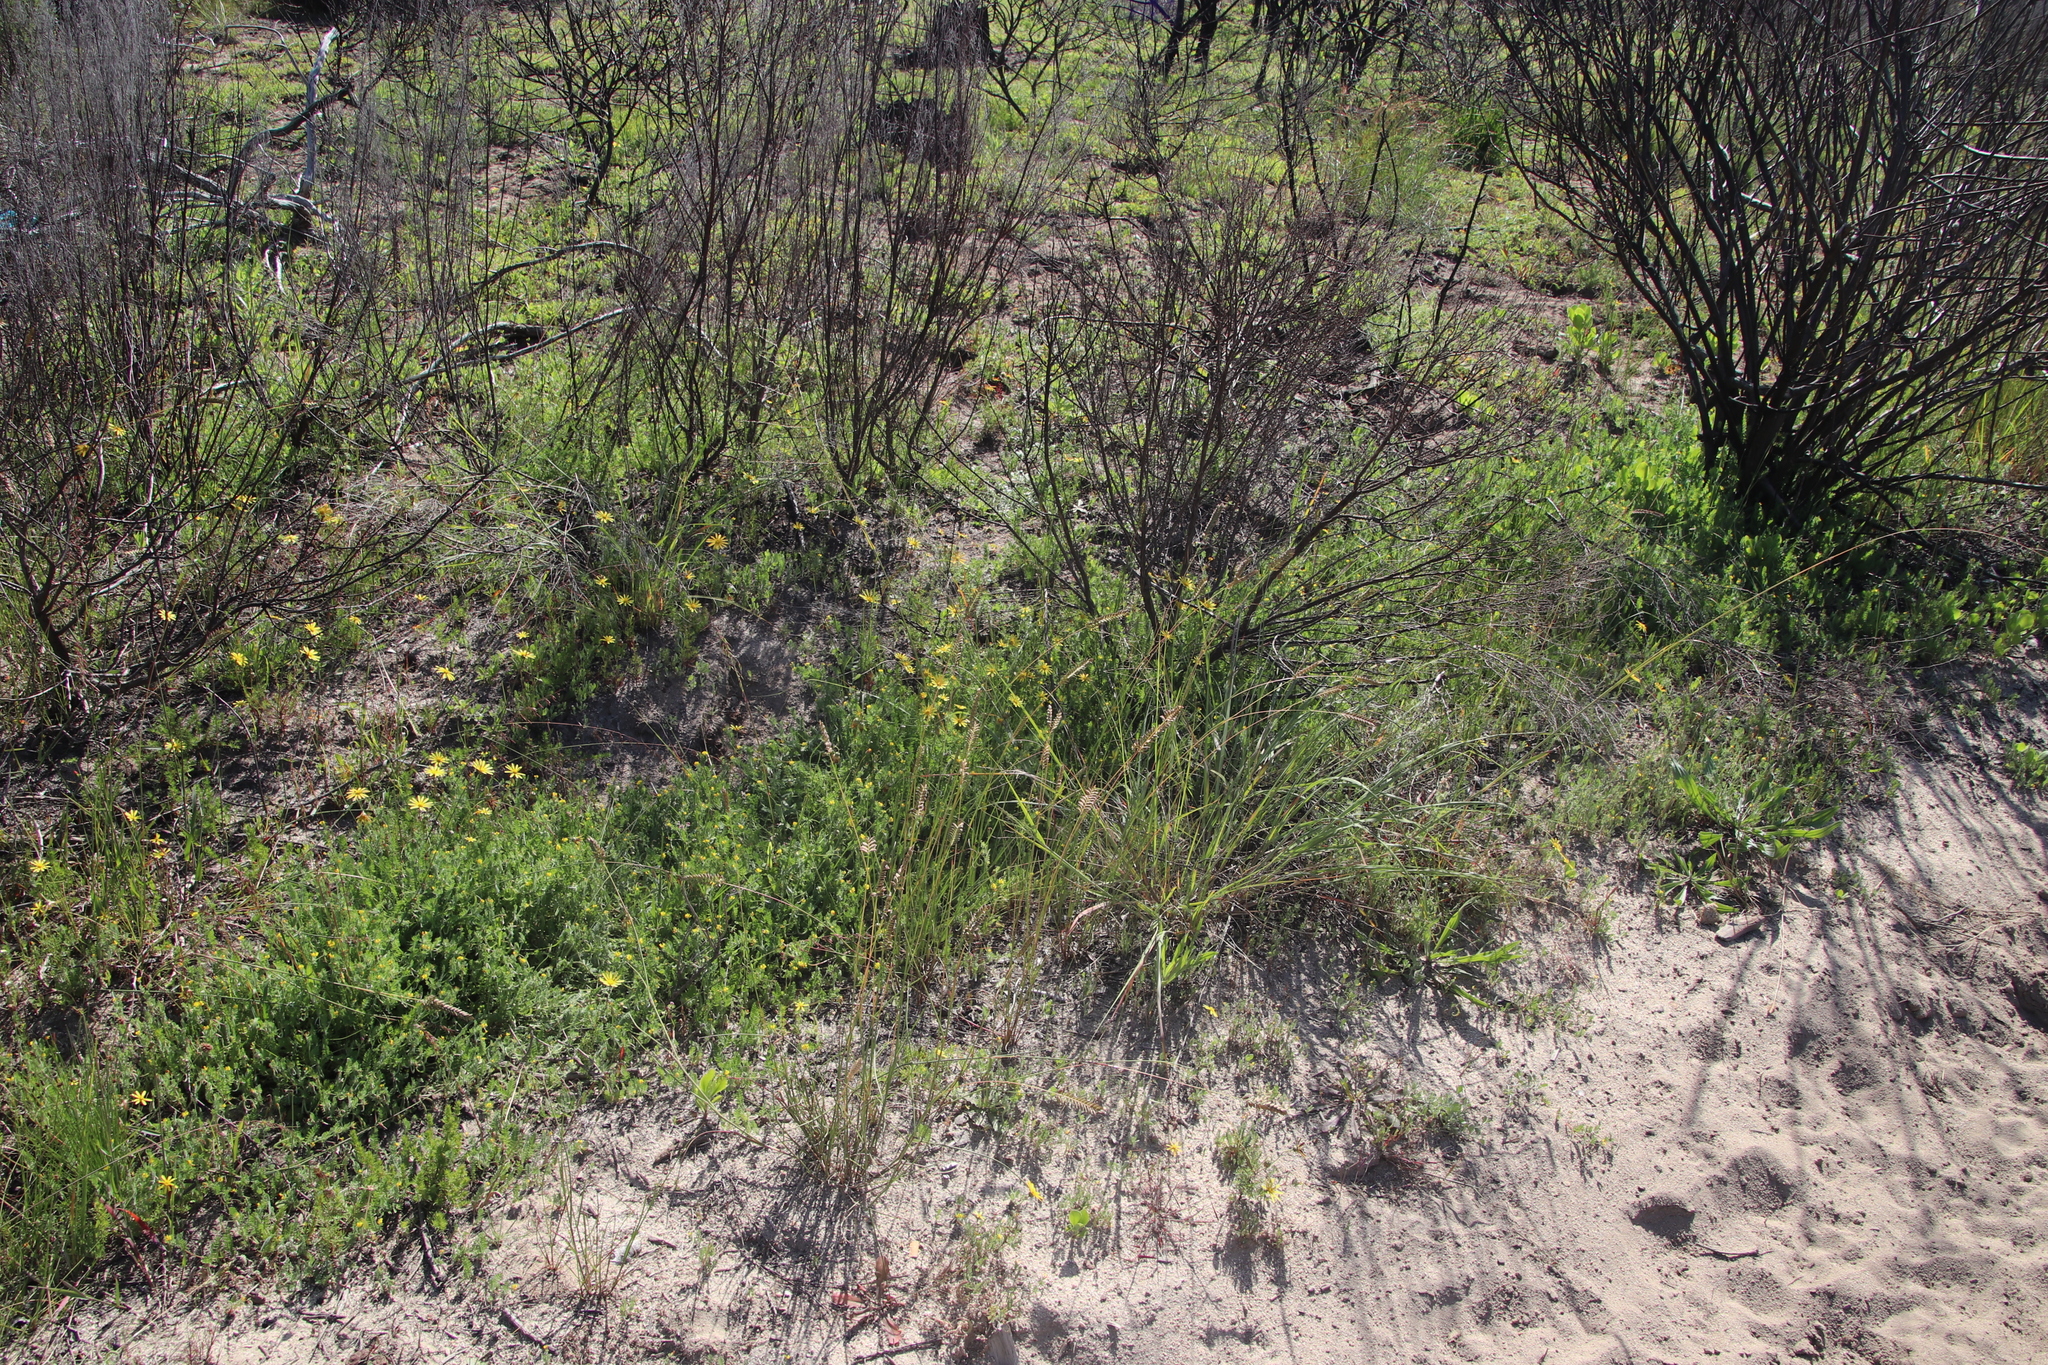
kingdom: Plantae
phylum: Tracheophyta
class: Liliopsida
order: Poales
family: Poaceae
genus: Tribolium
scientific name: Tribolium uniolae
